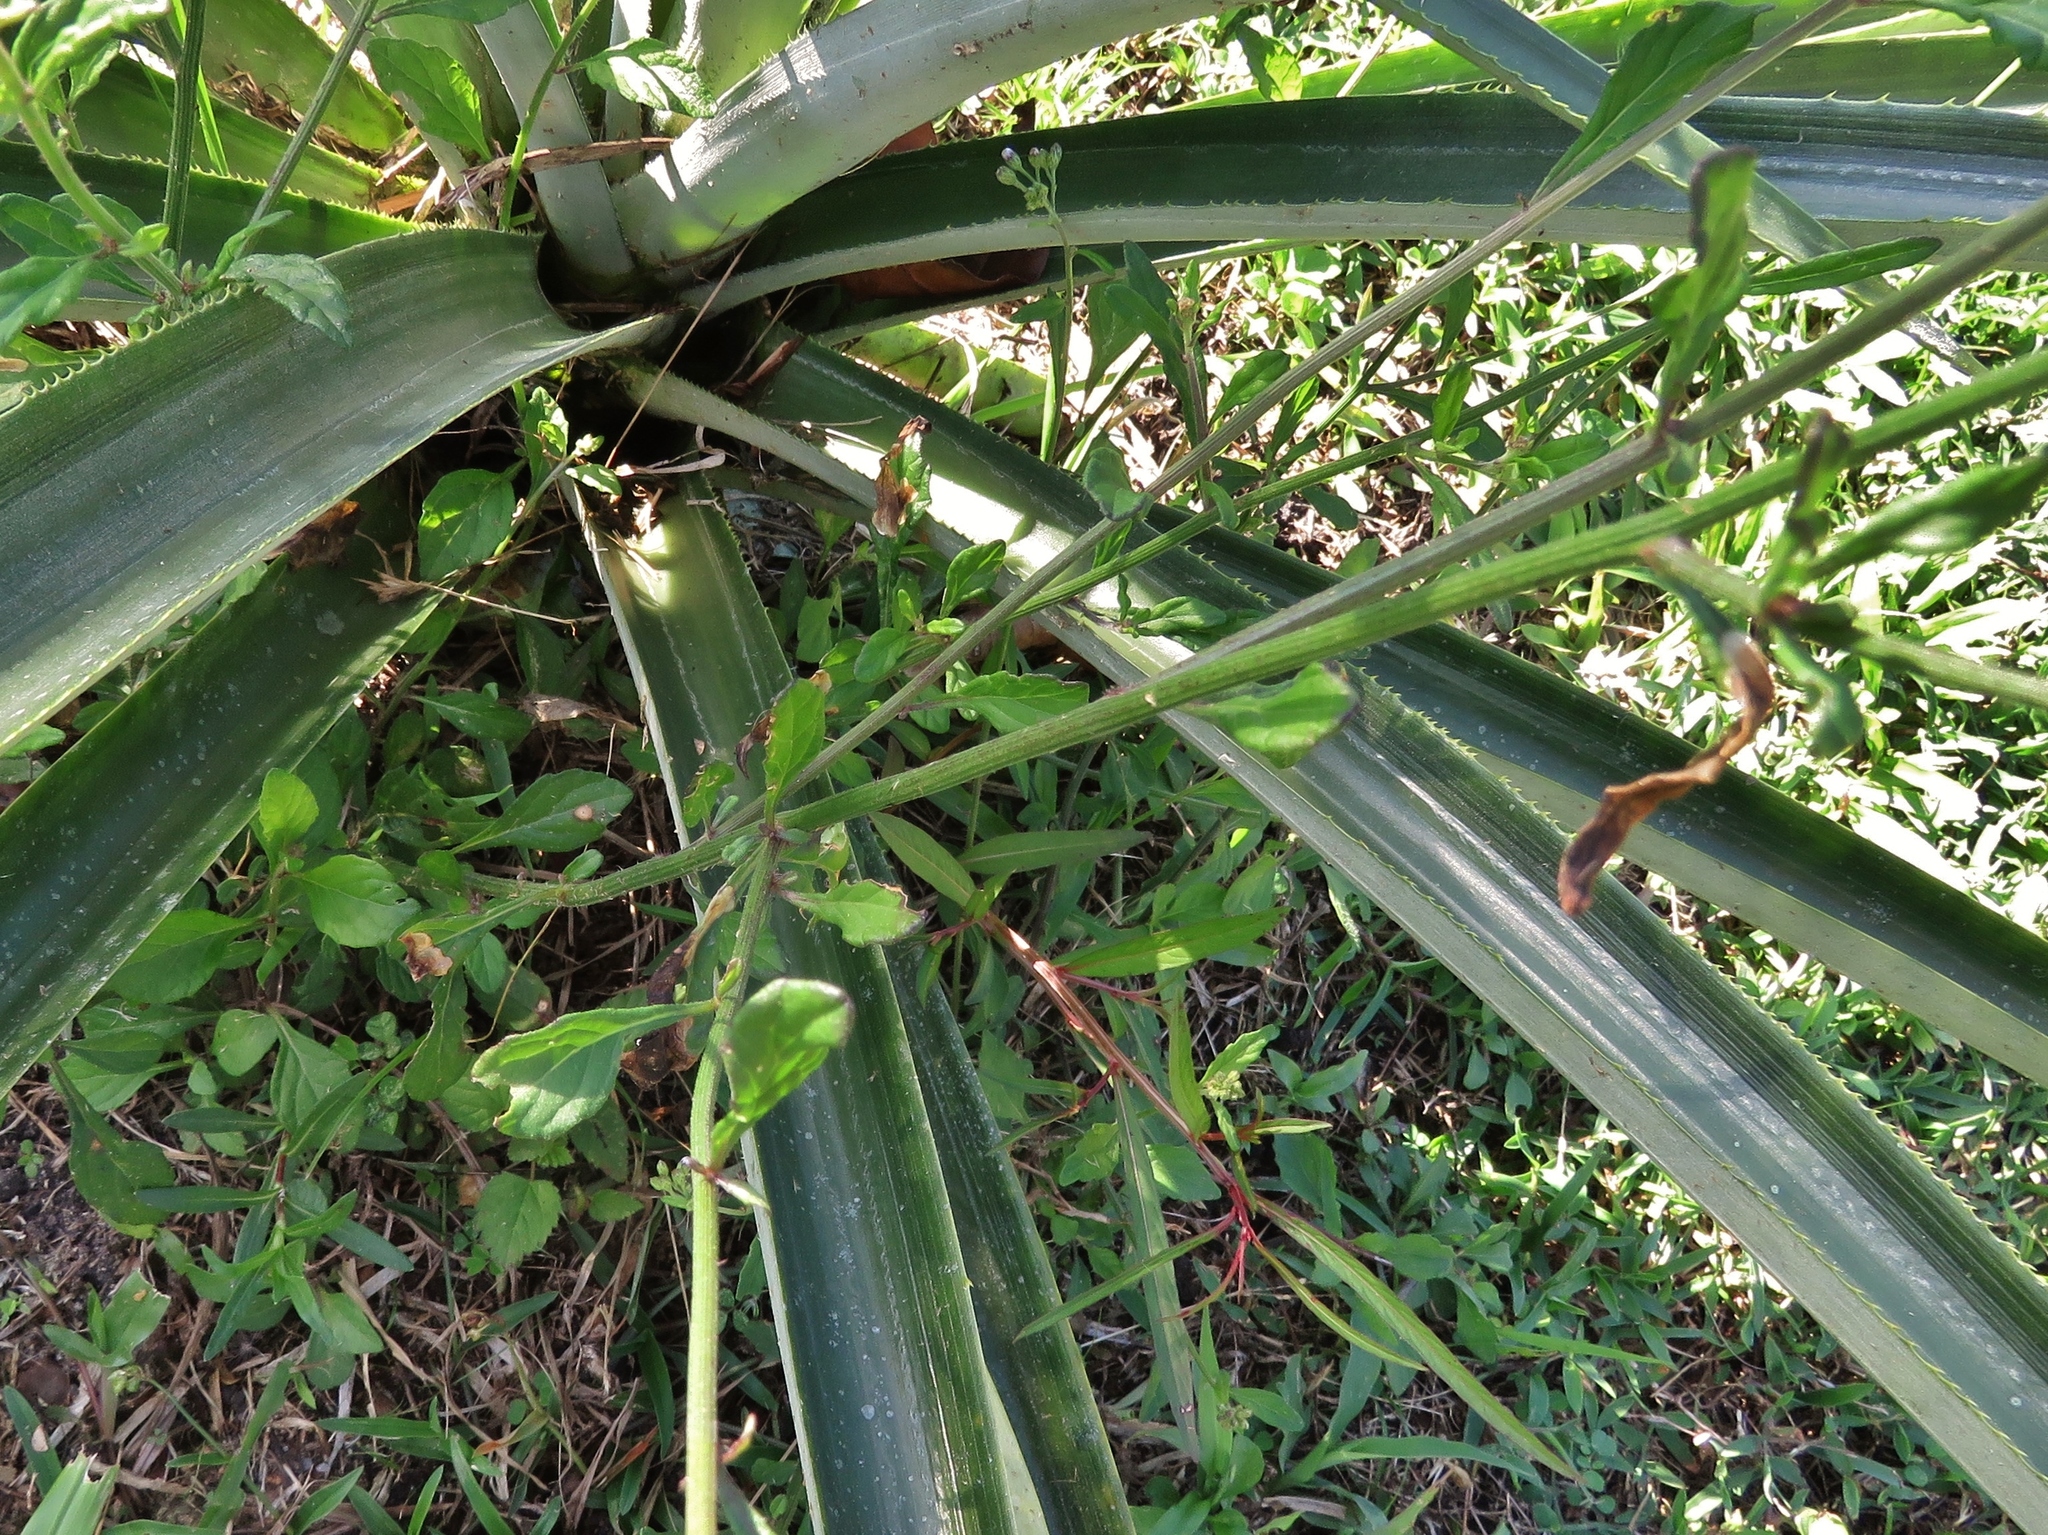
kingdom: Plantae
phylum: Tracheophyta
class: Magnoliopsida
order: Asterales
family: Asteraceae
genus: Cyanthillium
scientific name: Cyanthillium cinereum
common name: Little ironweed
